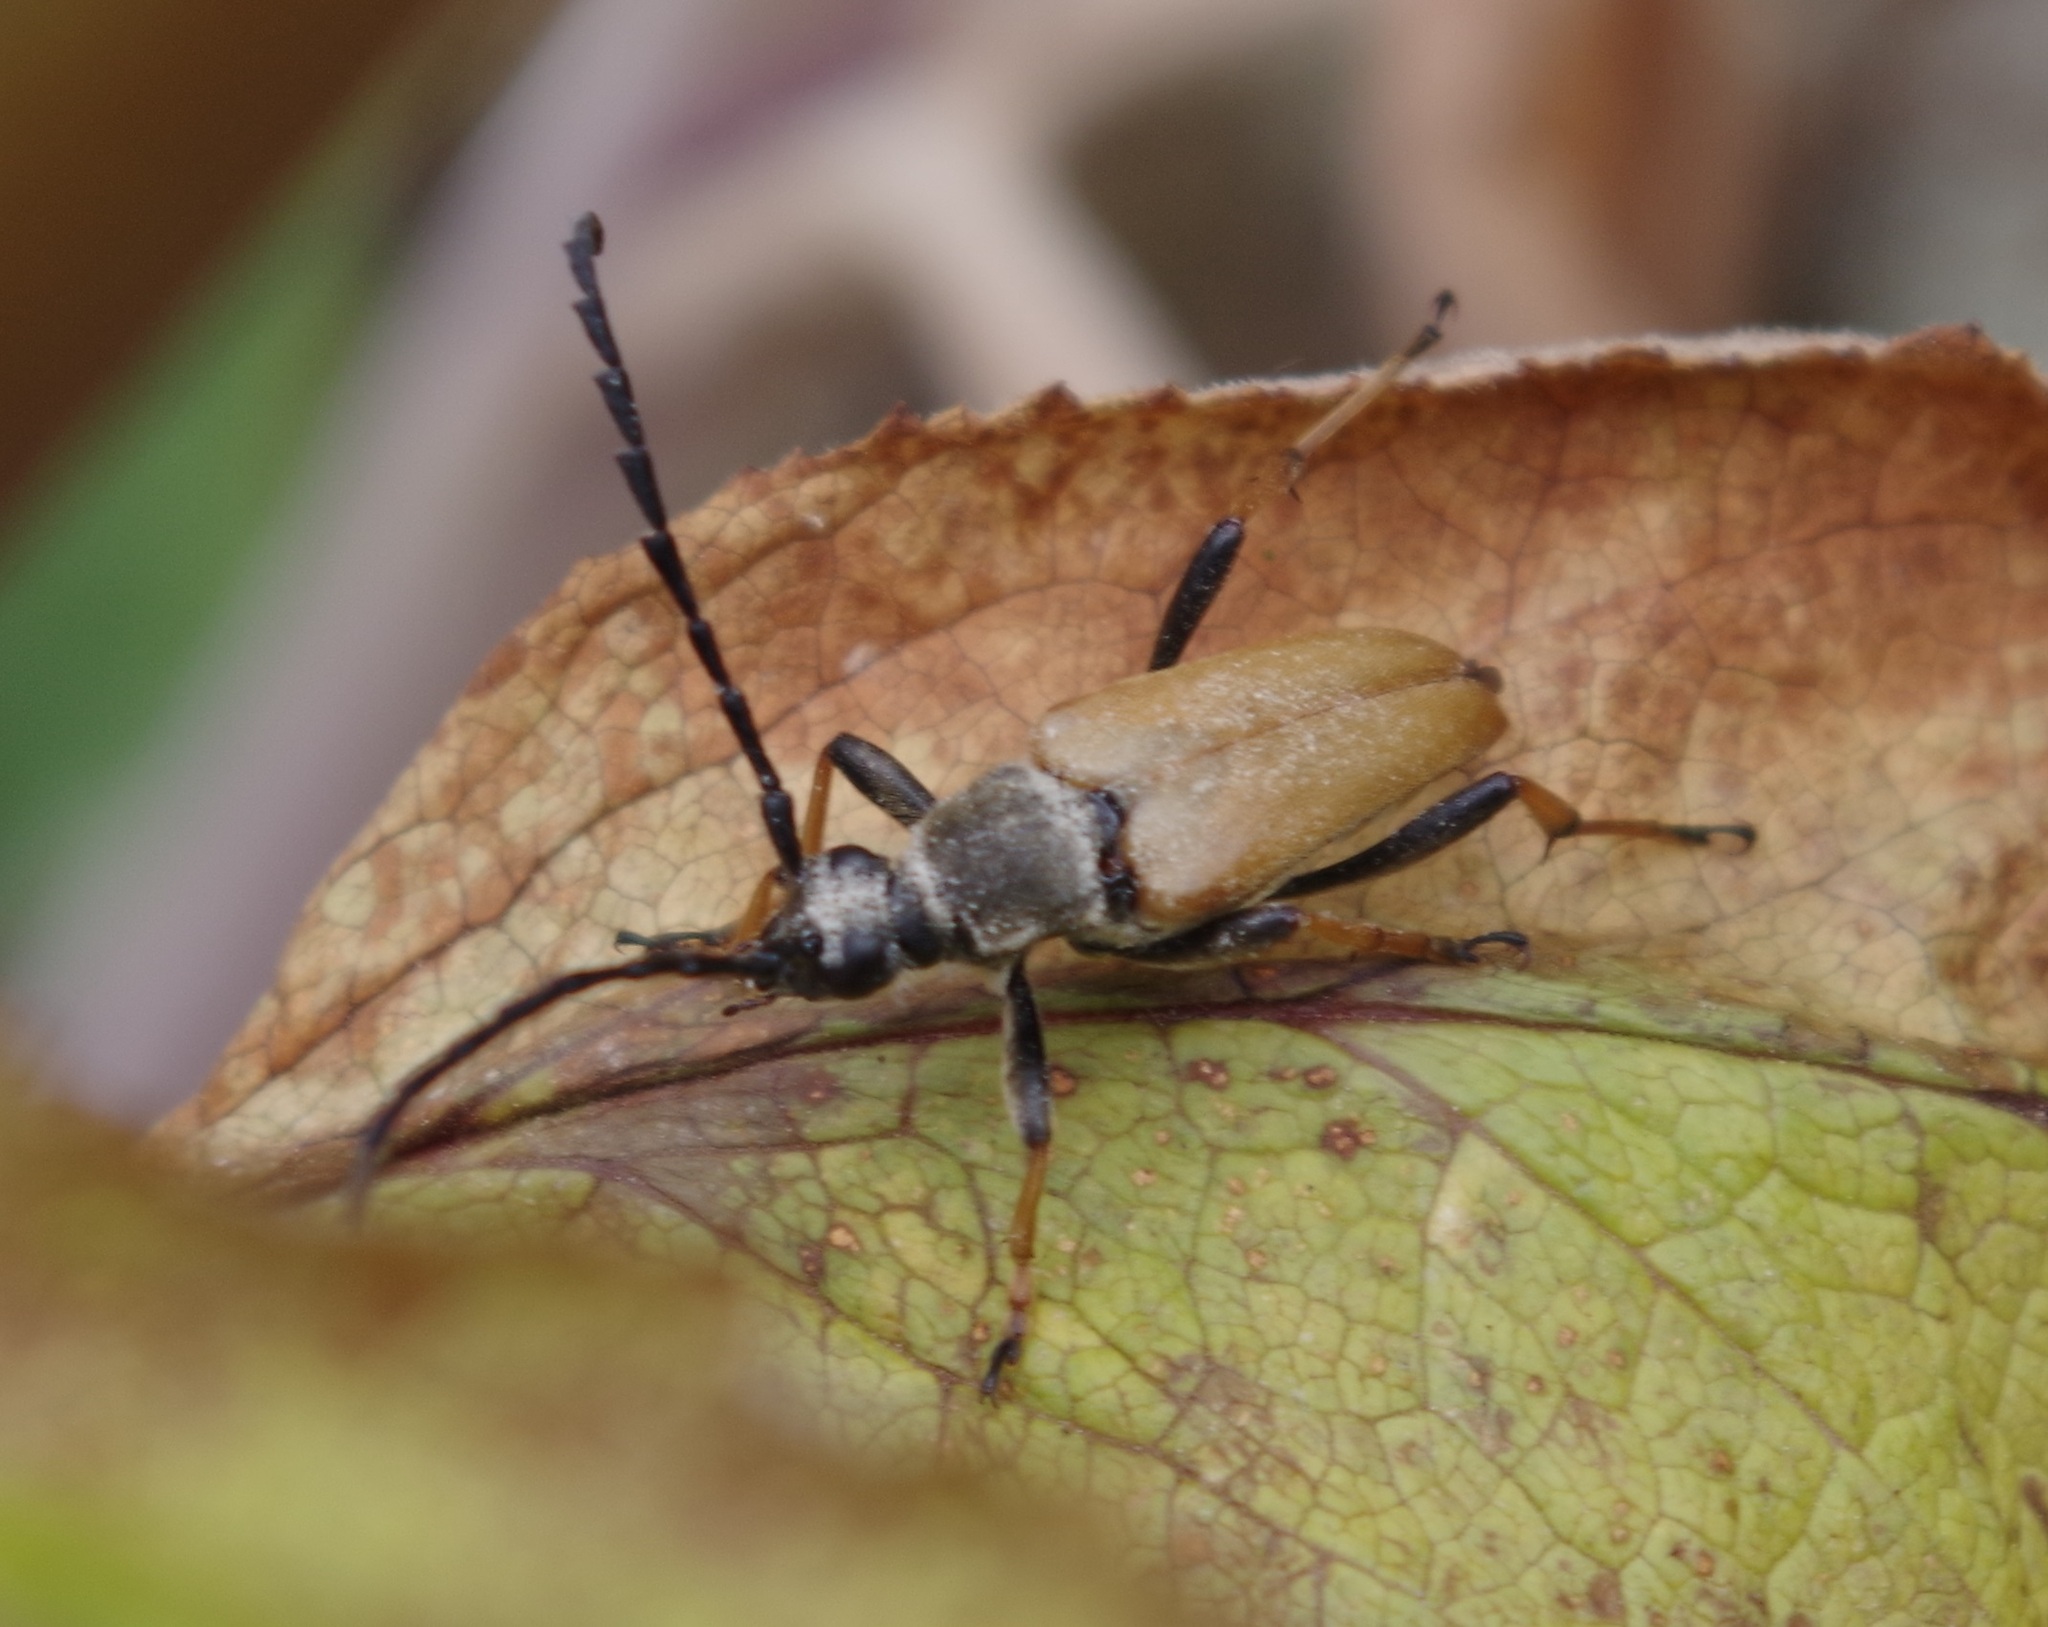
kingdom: Animalia
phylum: Arthropoda
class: Insecta
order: Coleoptera
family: Cerambycidae
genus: Stictoleptura
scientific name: Stictoleptura rubra
